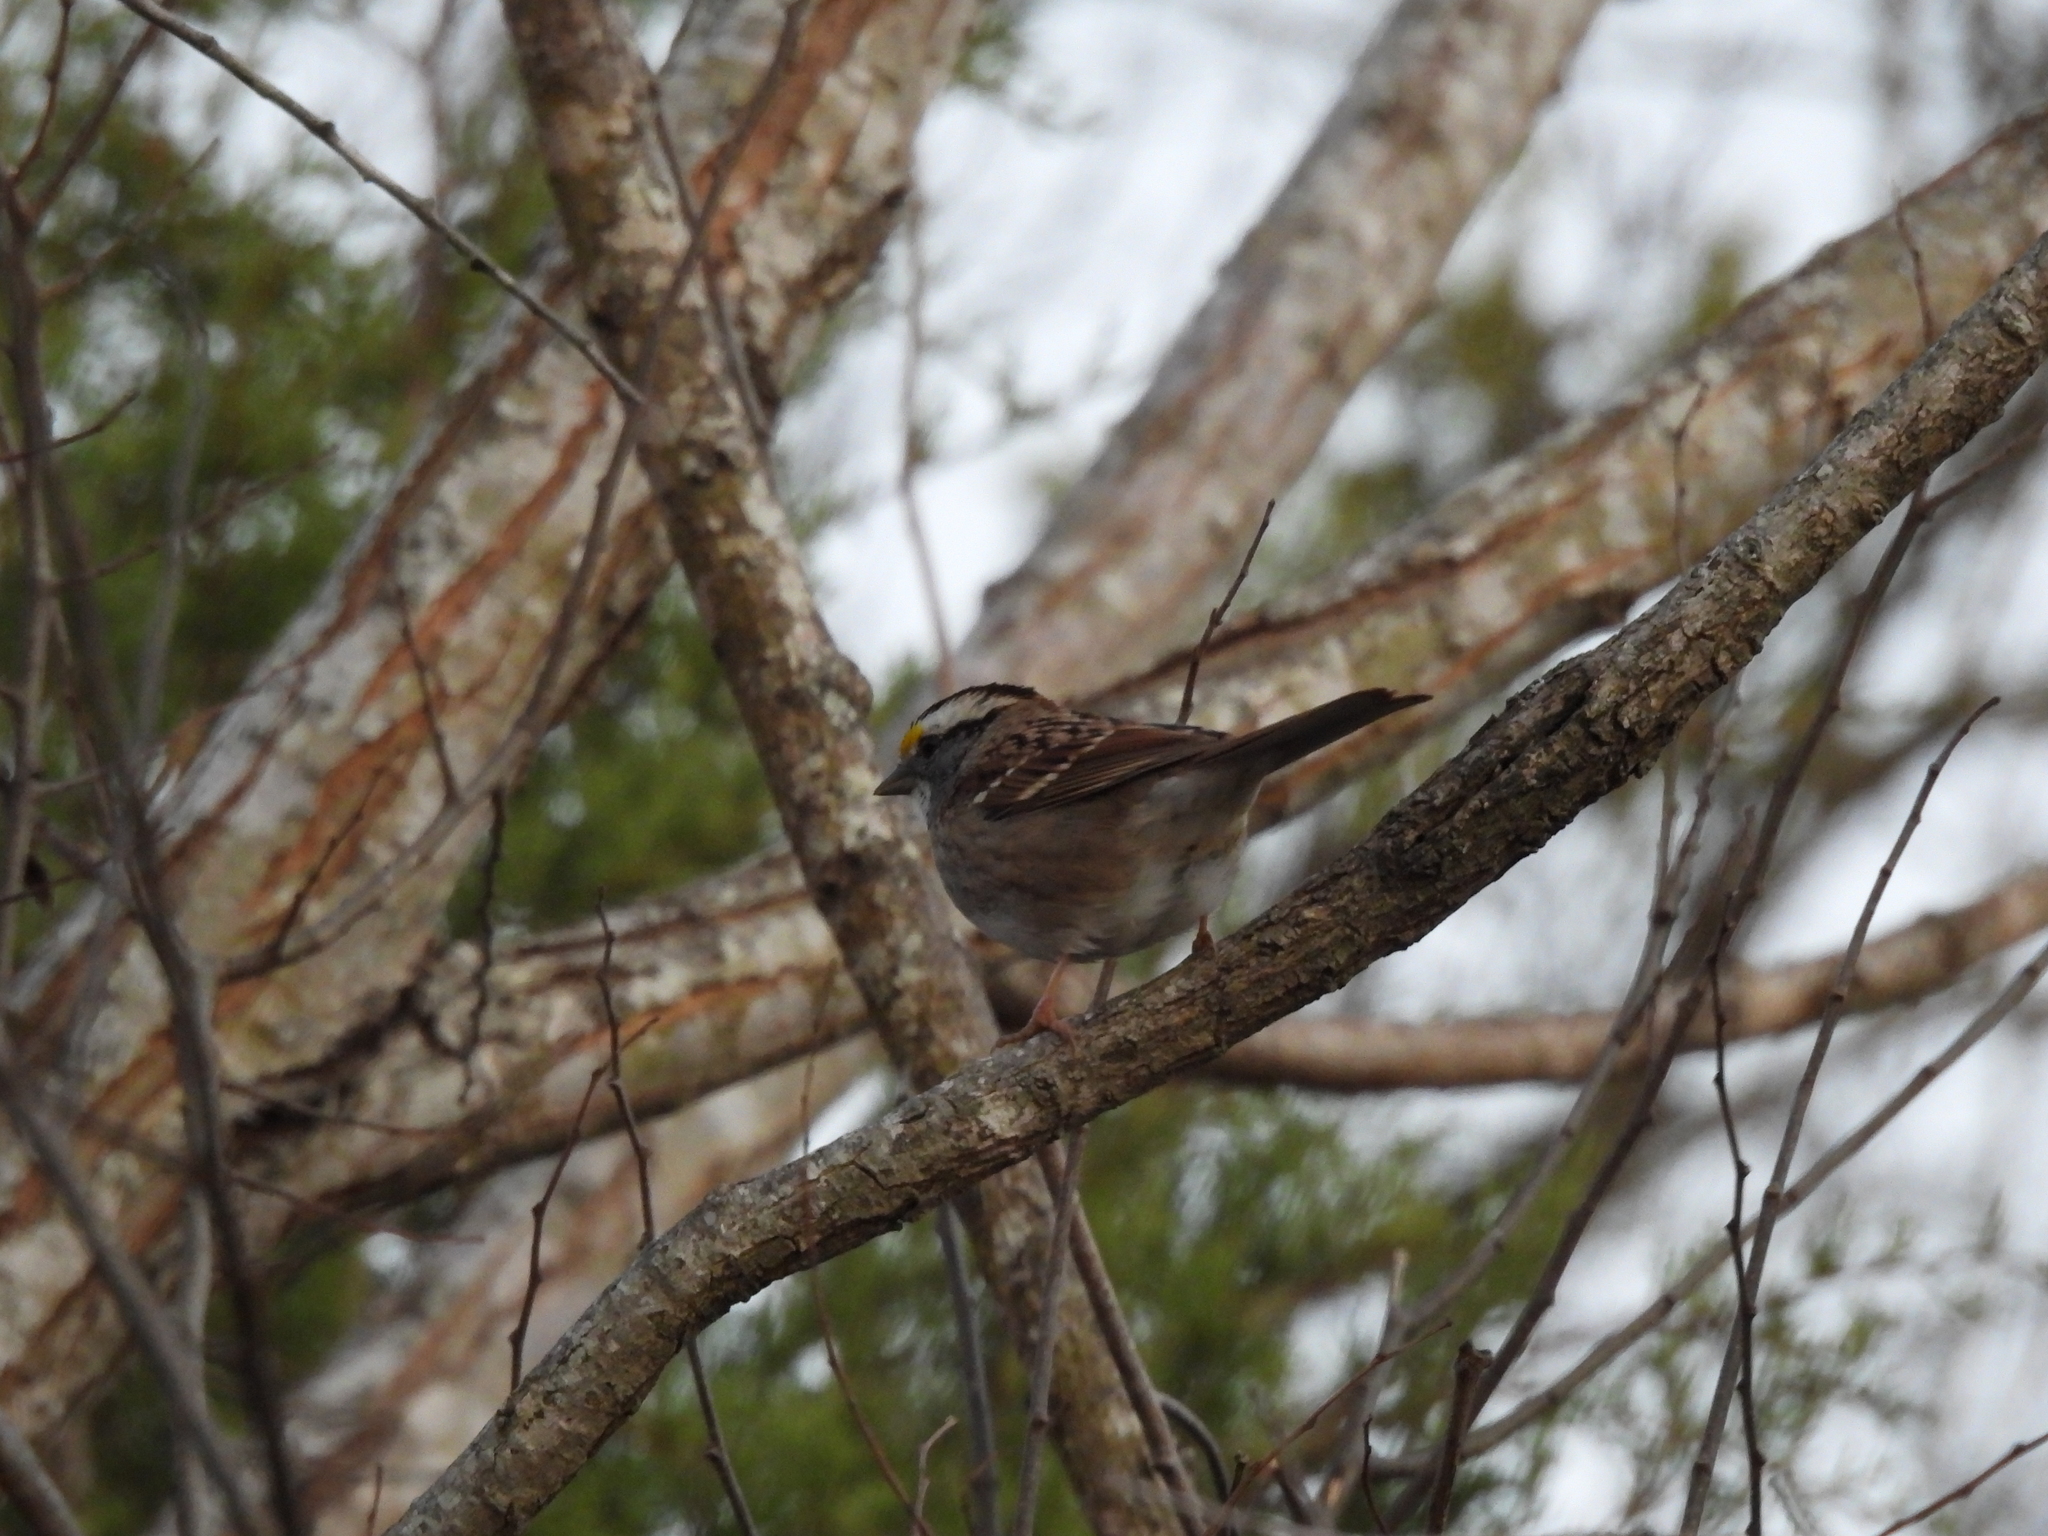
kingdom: Animalia
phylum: Chordata
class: Aves
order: Passeriformes
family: Passerellidae
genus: Zonotrichia
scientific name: Zonotrichia albicollis
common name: White-throated sparrow
